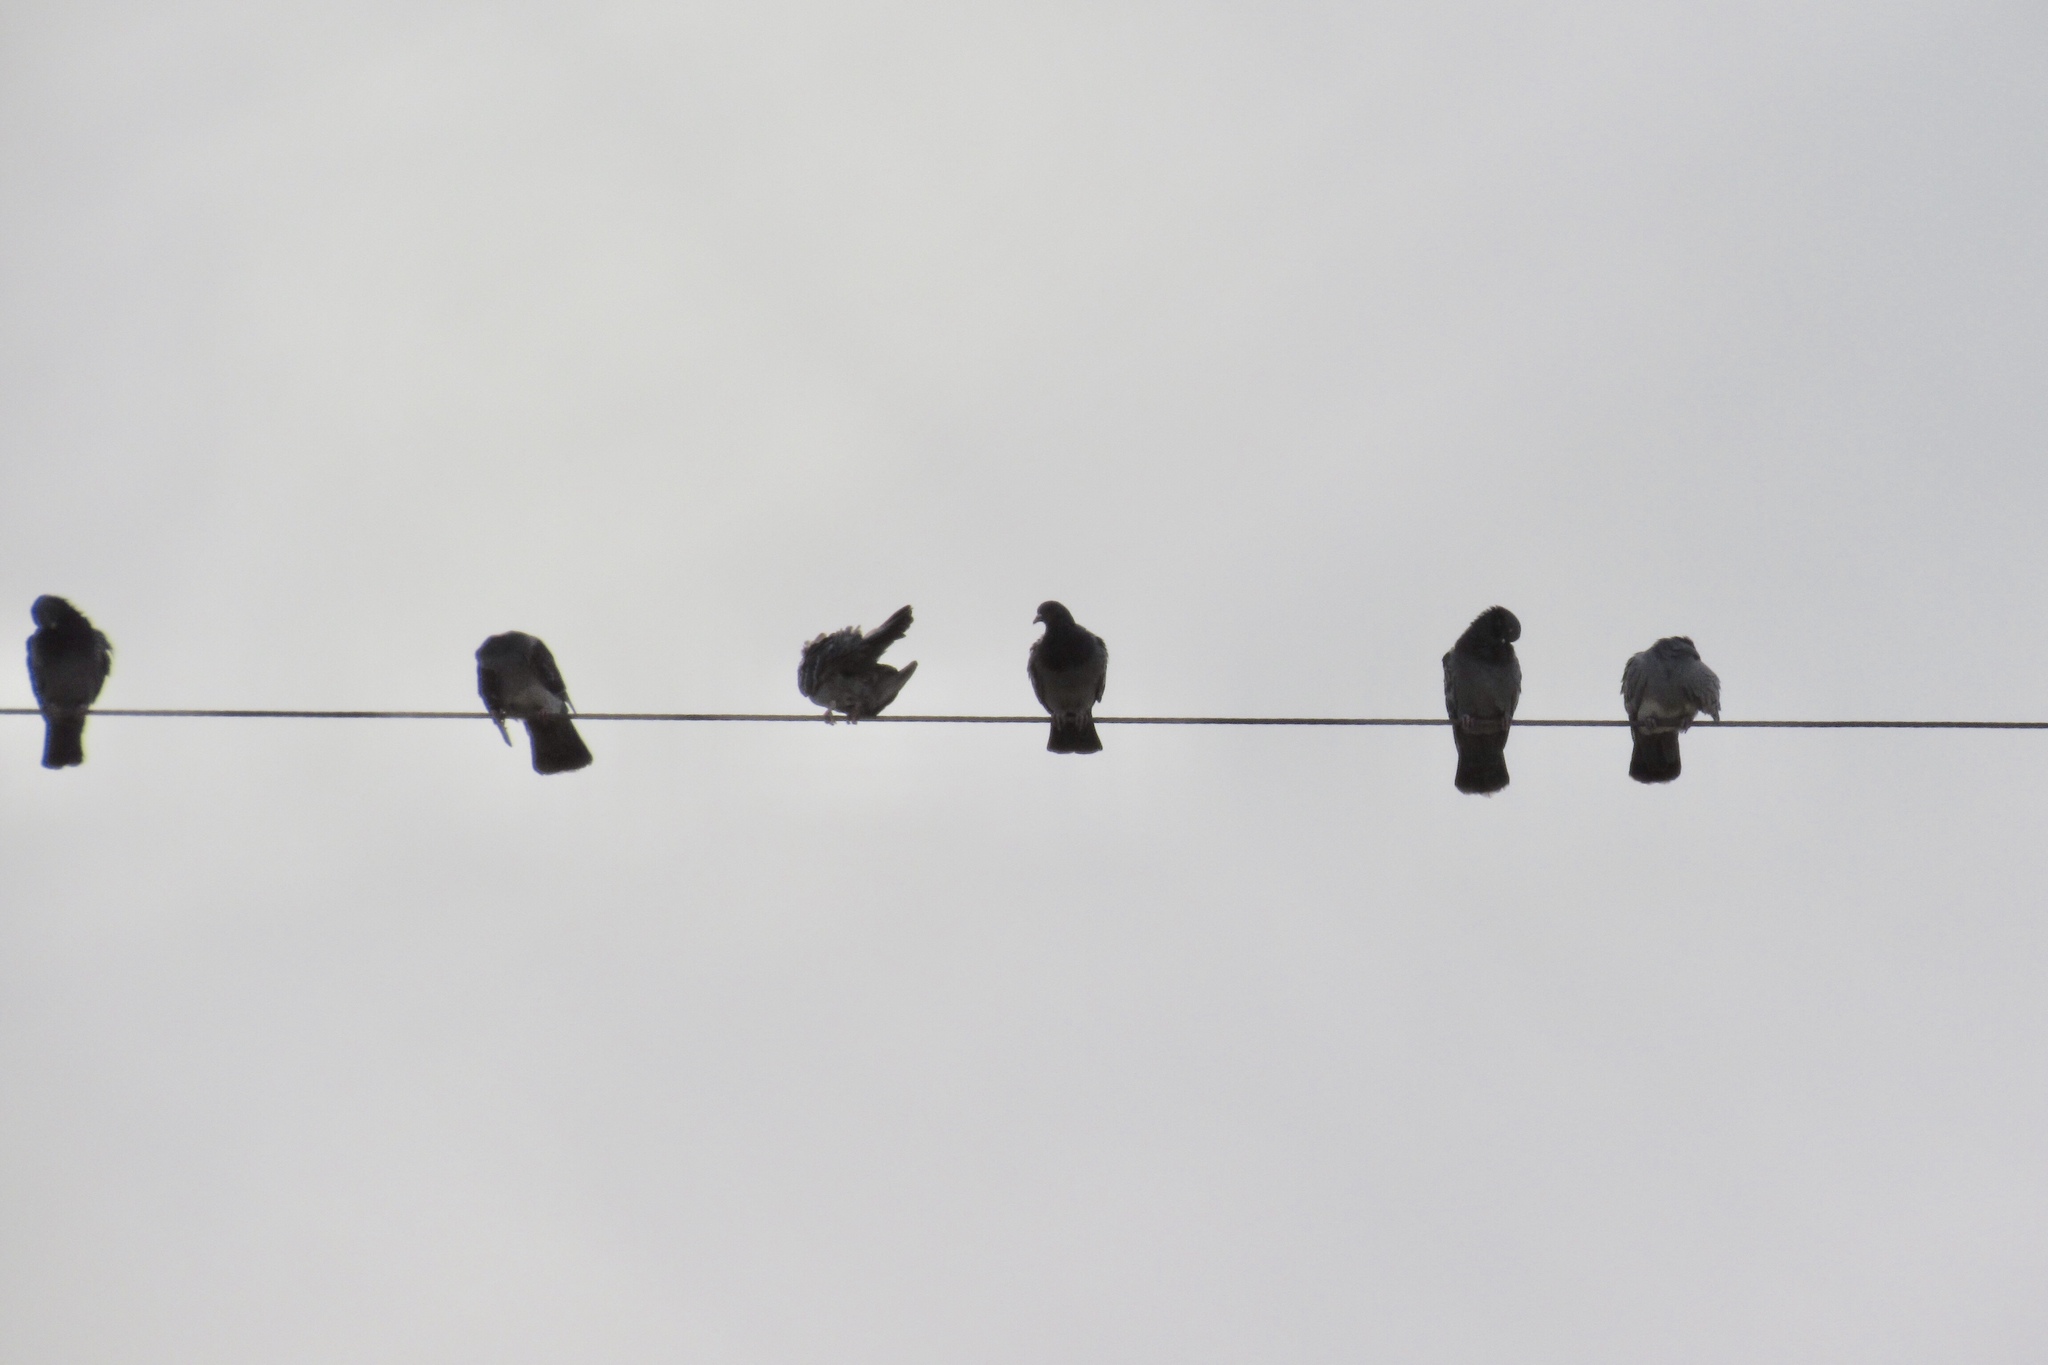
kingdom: Animalia
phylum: Chordata
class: Aves
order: Columbiformes
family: Columbidae
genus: Columba
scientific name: Columba livia
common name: Rock pigeon
